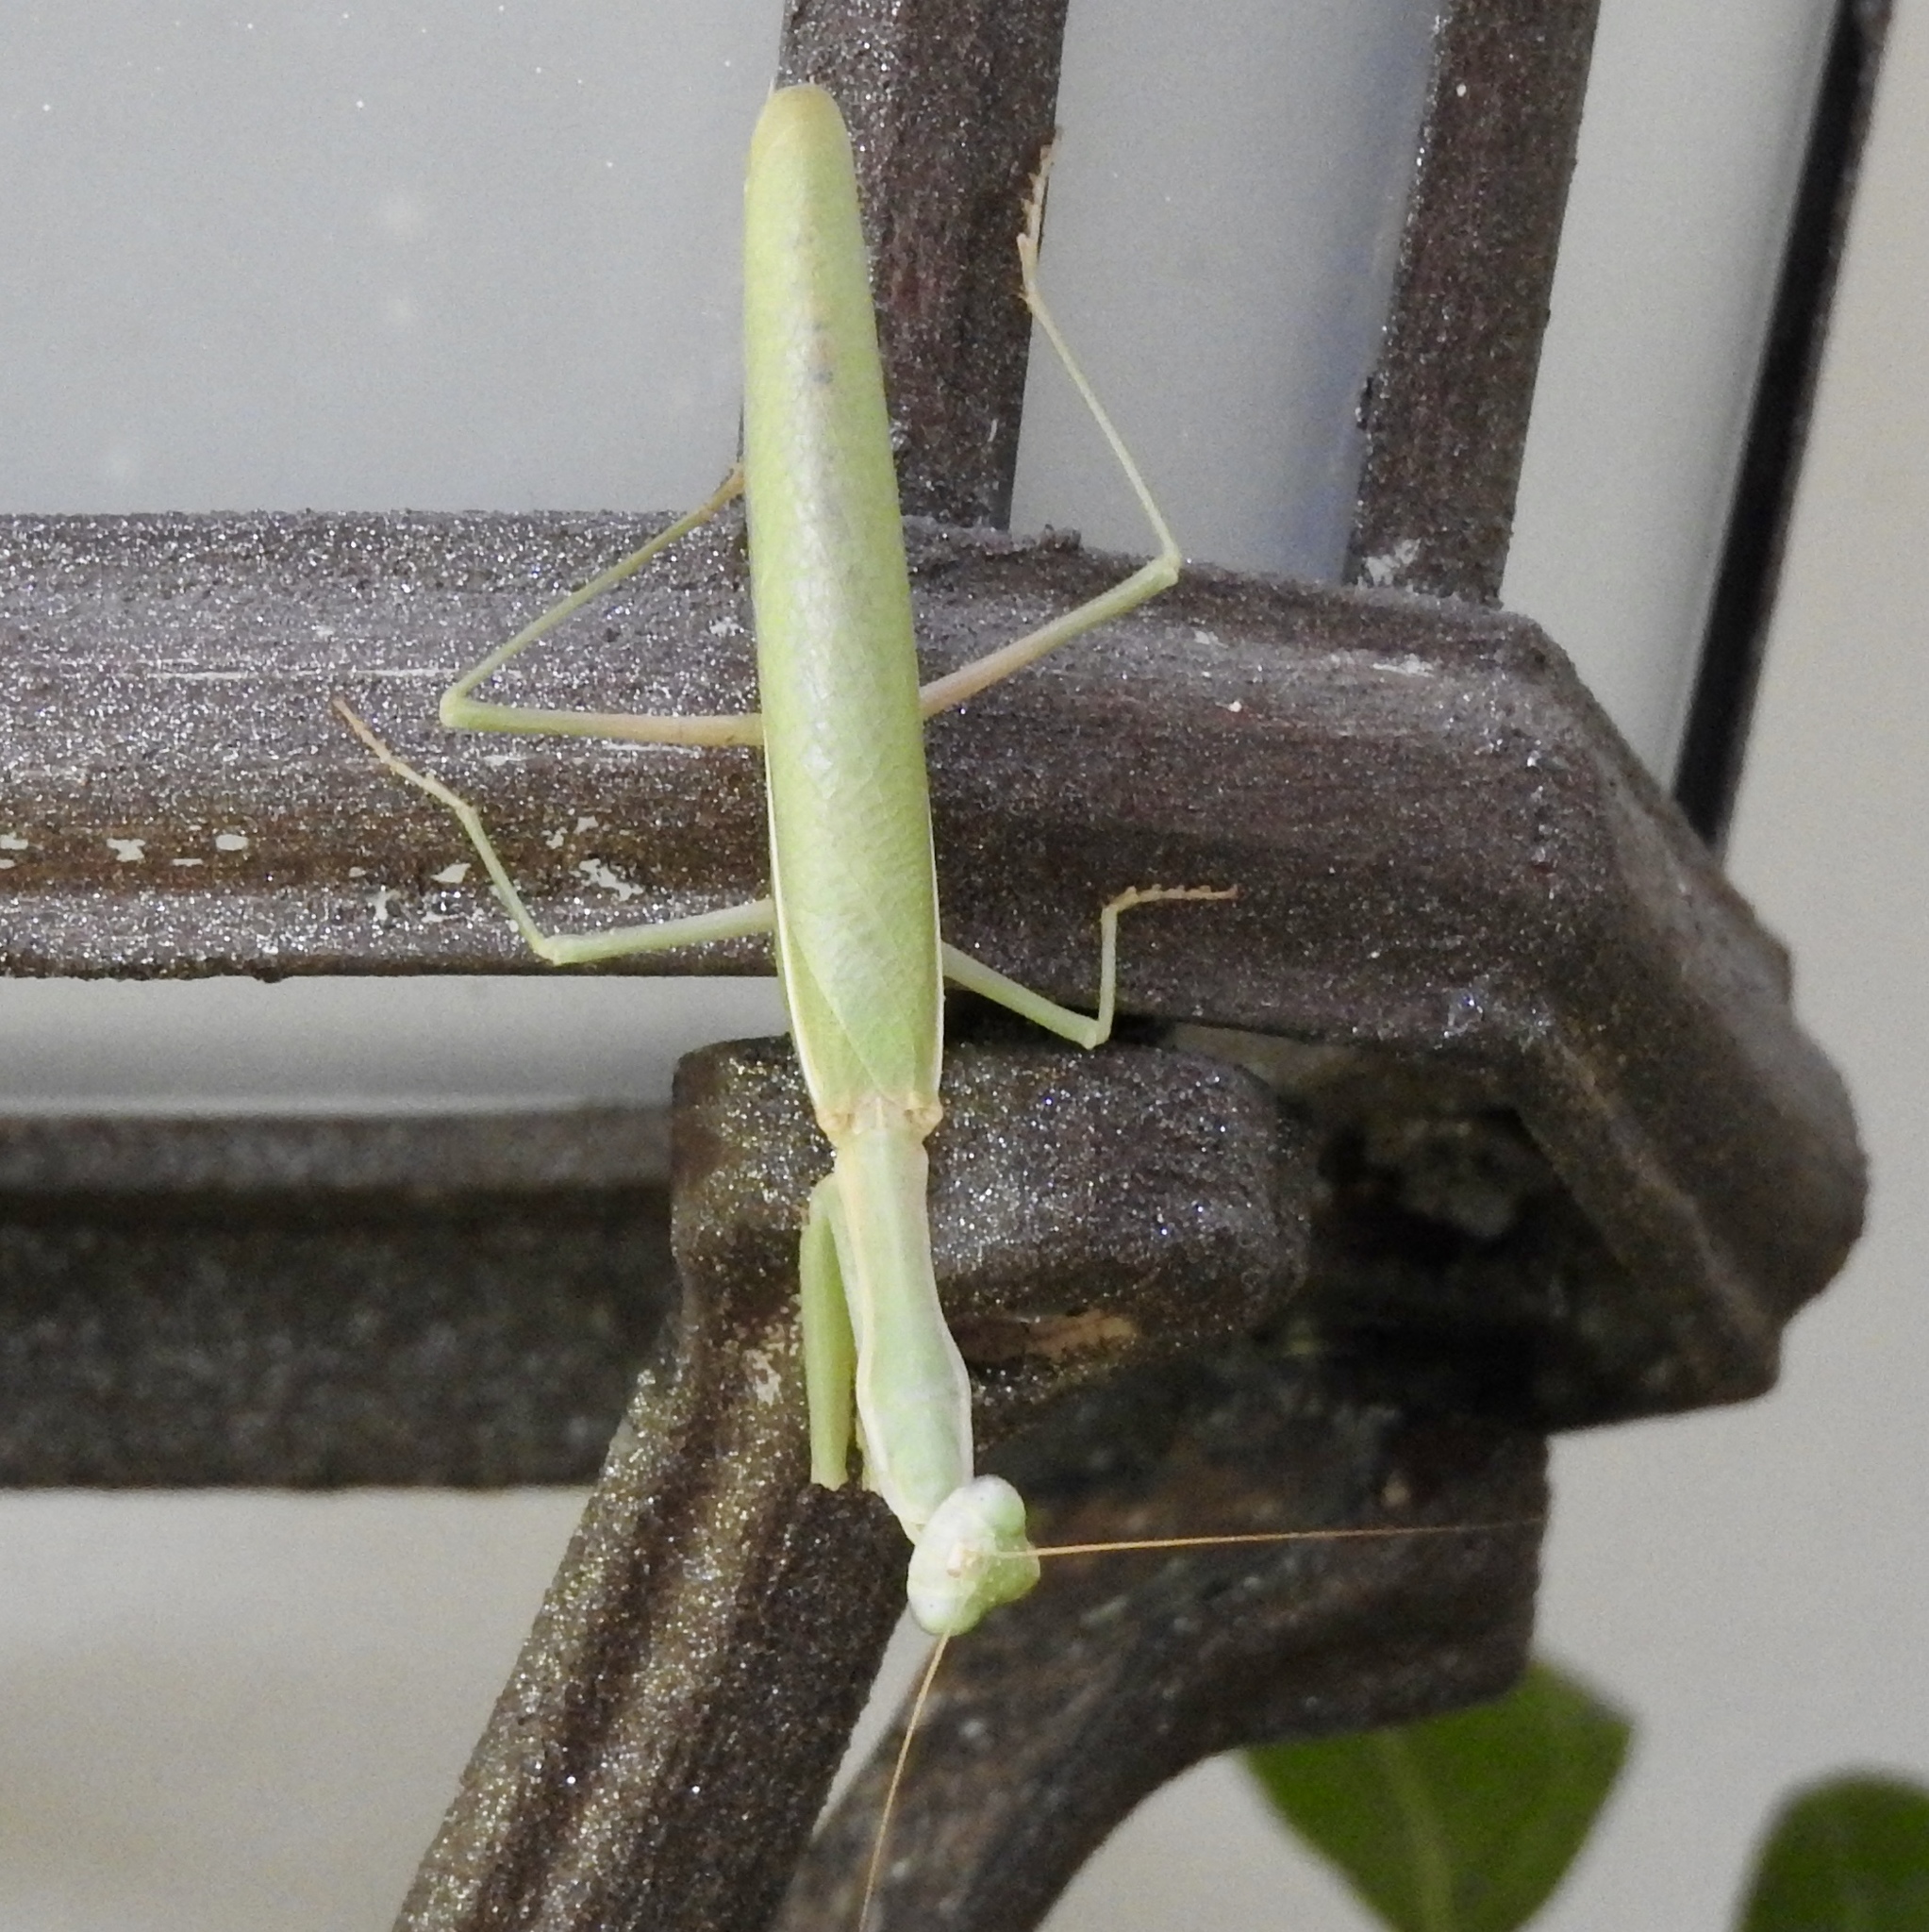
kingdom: Animalia
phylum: Arthropoda
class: Insecta
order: Mantodea
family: Eremiaphilidae
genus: Iris
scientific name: Iris oratoria
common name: Mediterranean mantis
